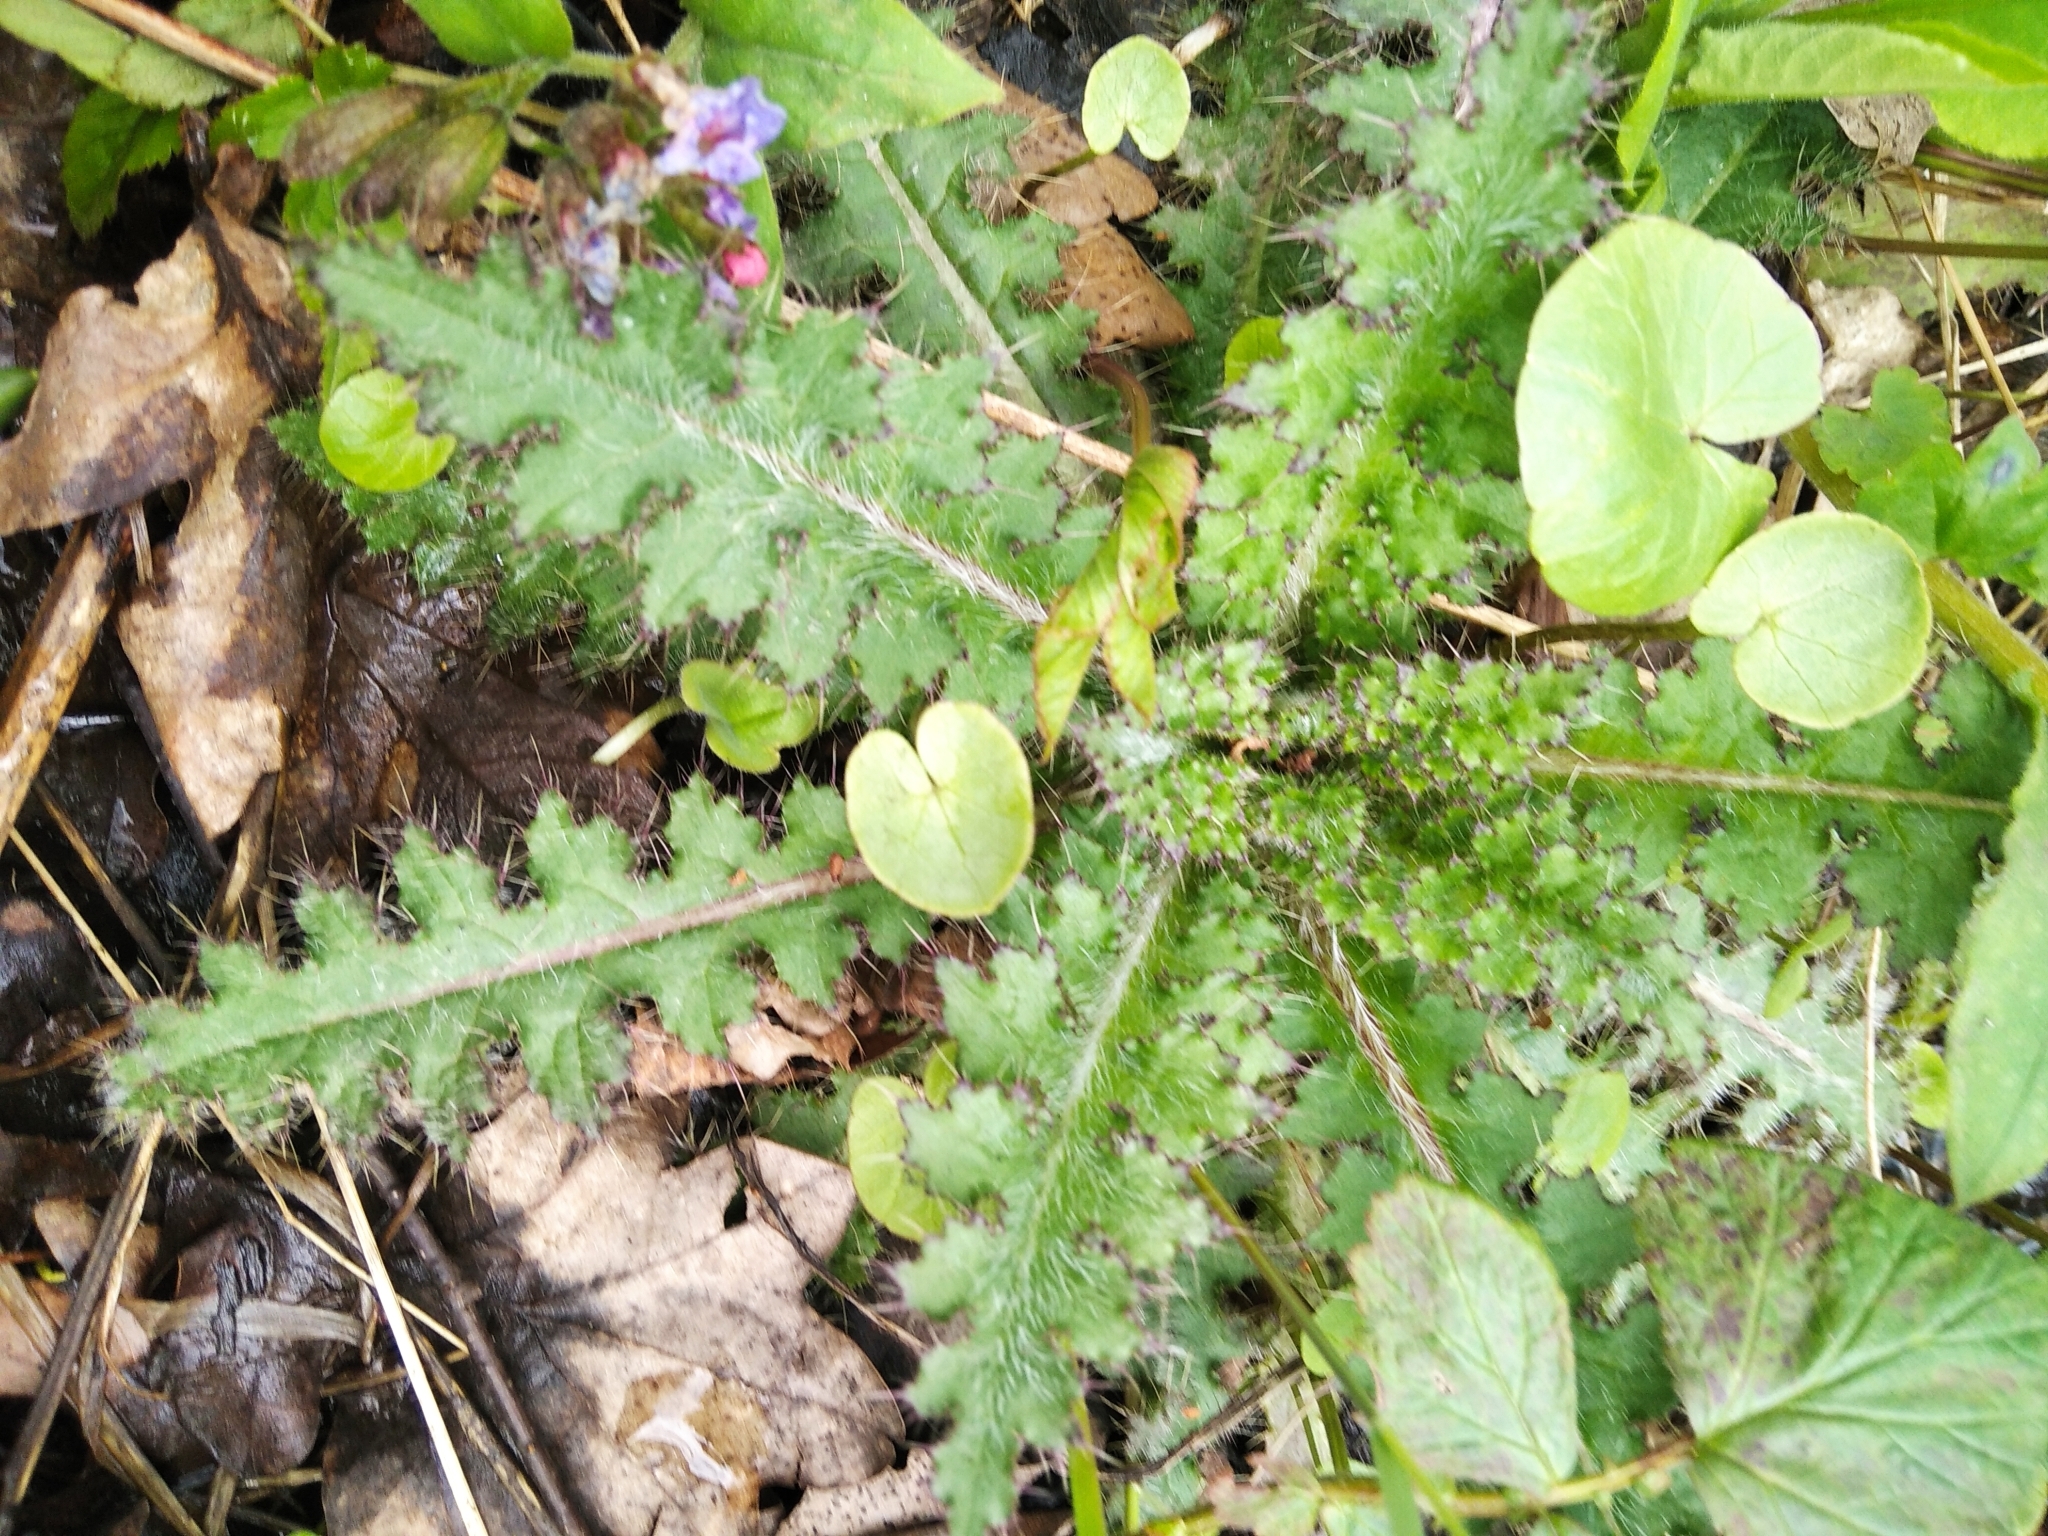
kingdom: Plantae
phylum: Tracheophyta
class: Magnoliopsida
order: Asterales
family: Asteraceae
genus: Cirsium
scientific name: Cirsium palustre
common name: Marsh thistle
